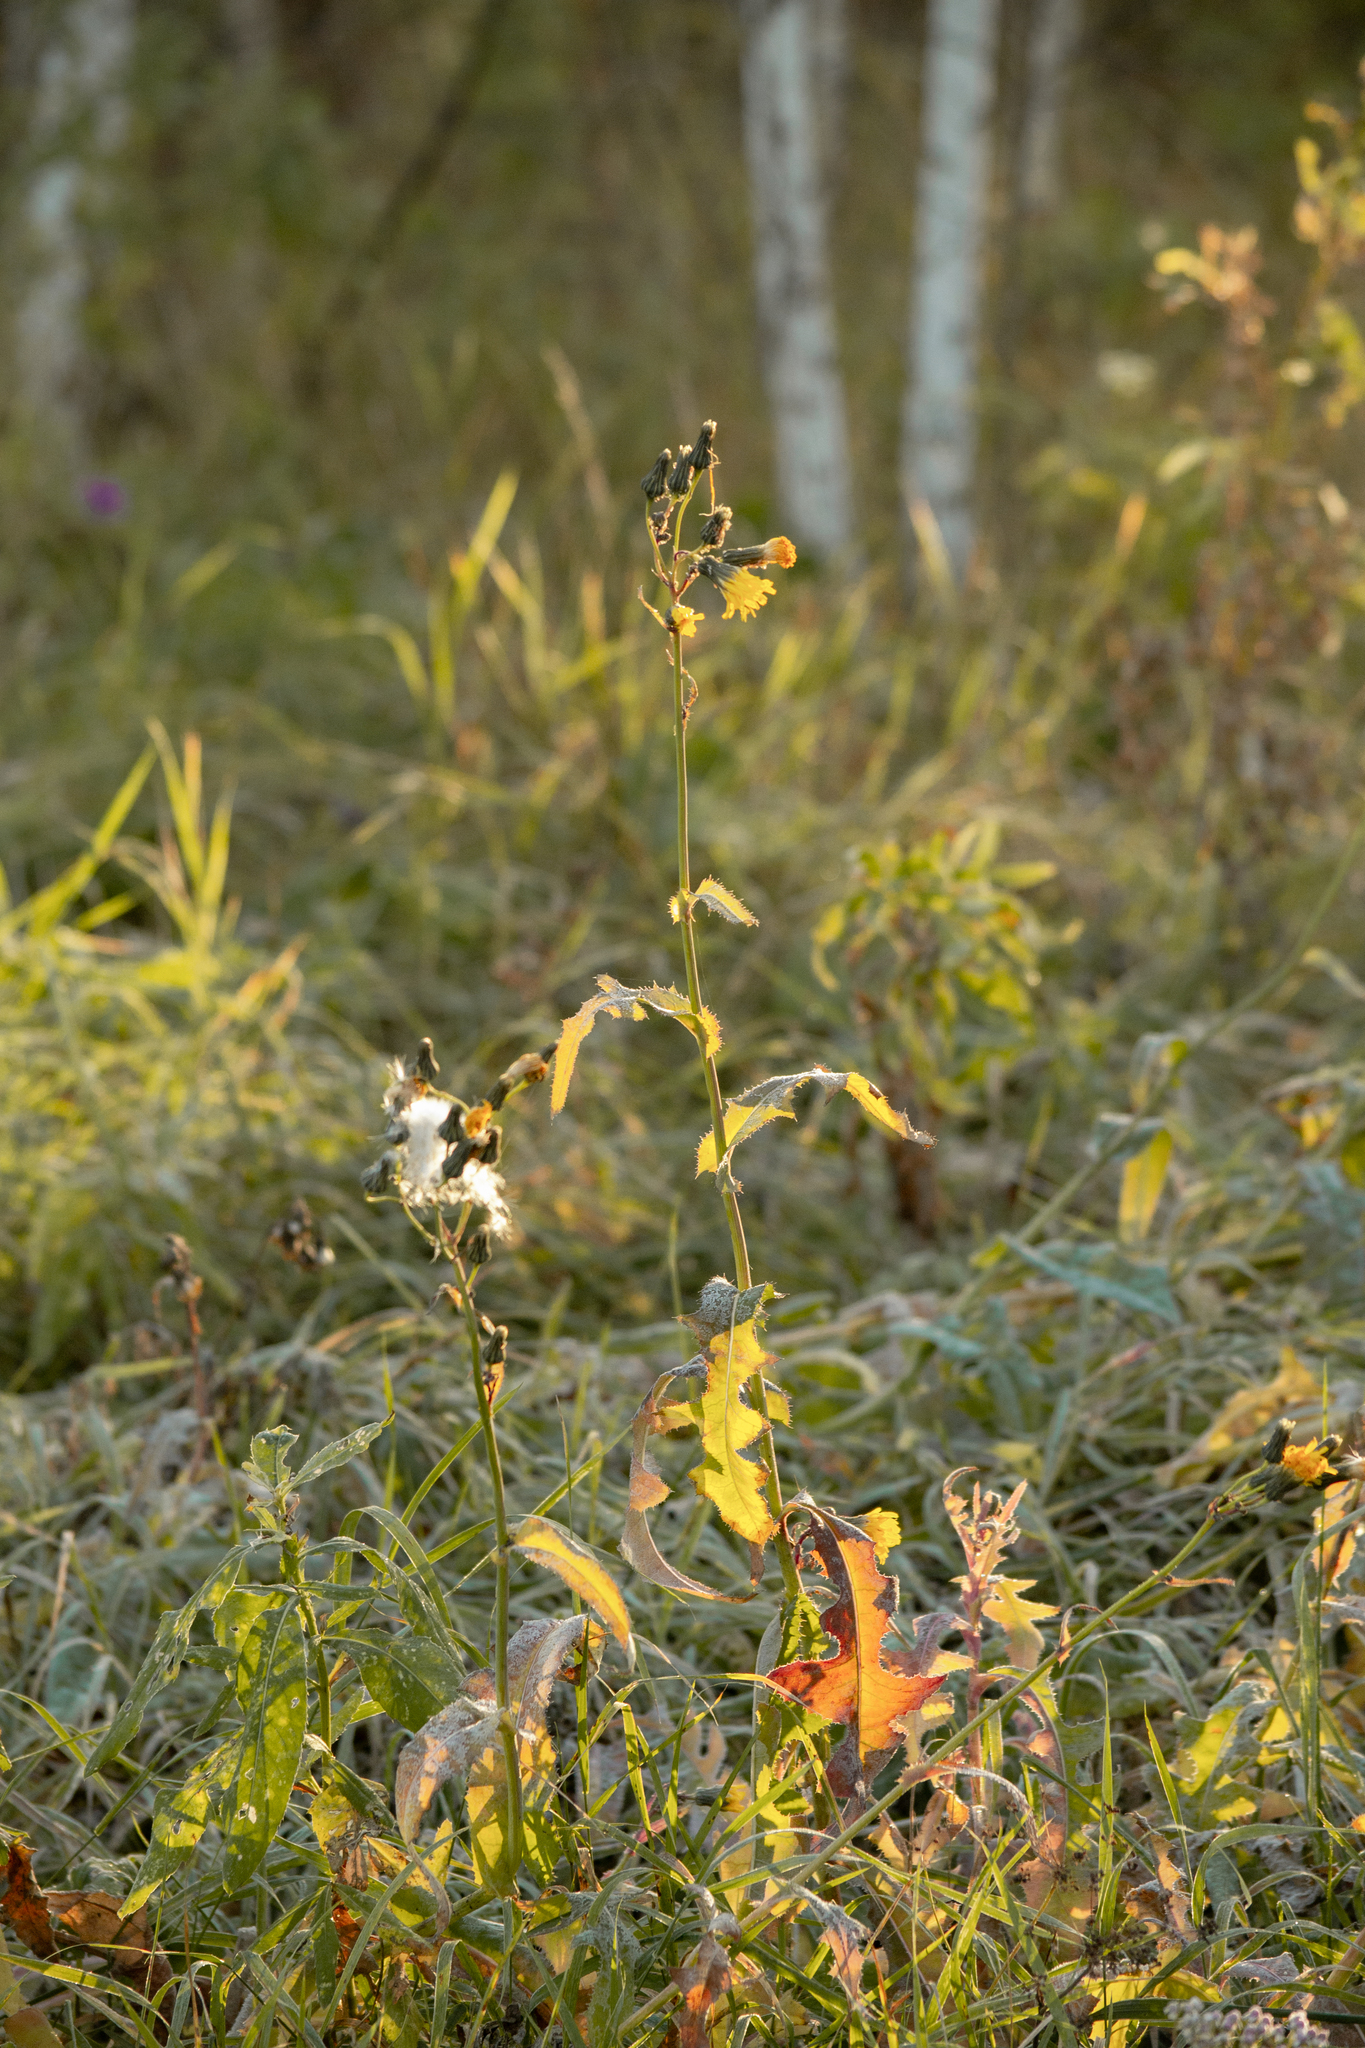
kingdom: Plantae
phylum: Tracheophyta
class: Magnoliopsida
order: Asterales
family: Asteraceae
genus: Sonchus
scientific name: Sonchus arvensis
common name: Perennial sow-thistle
